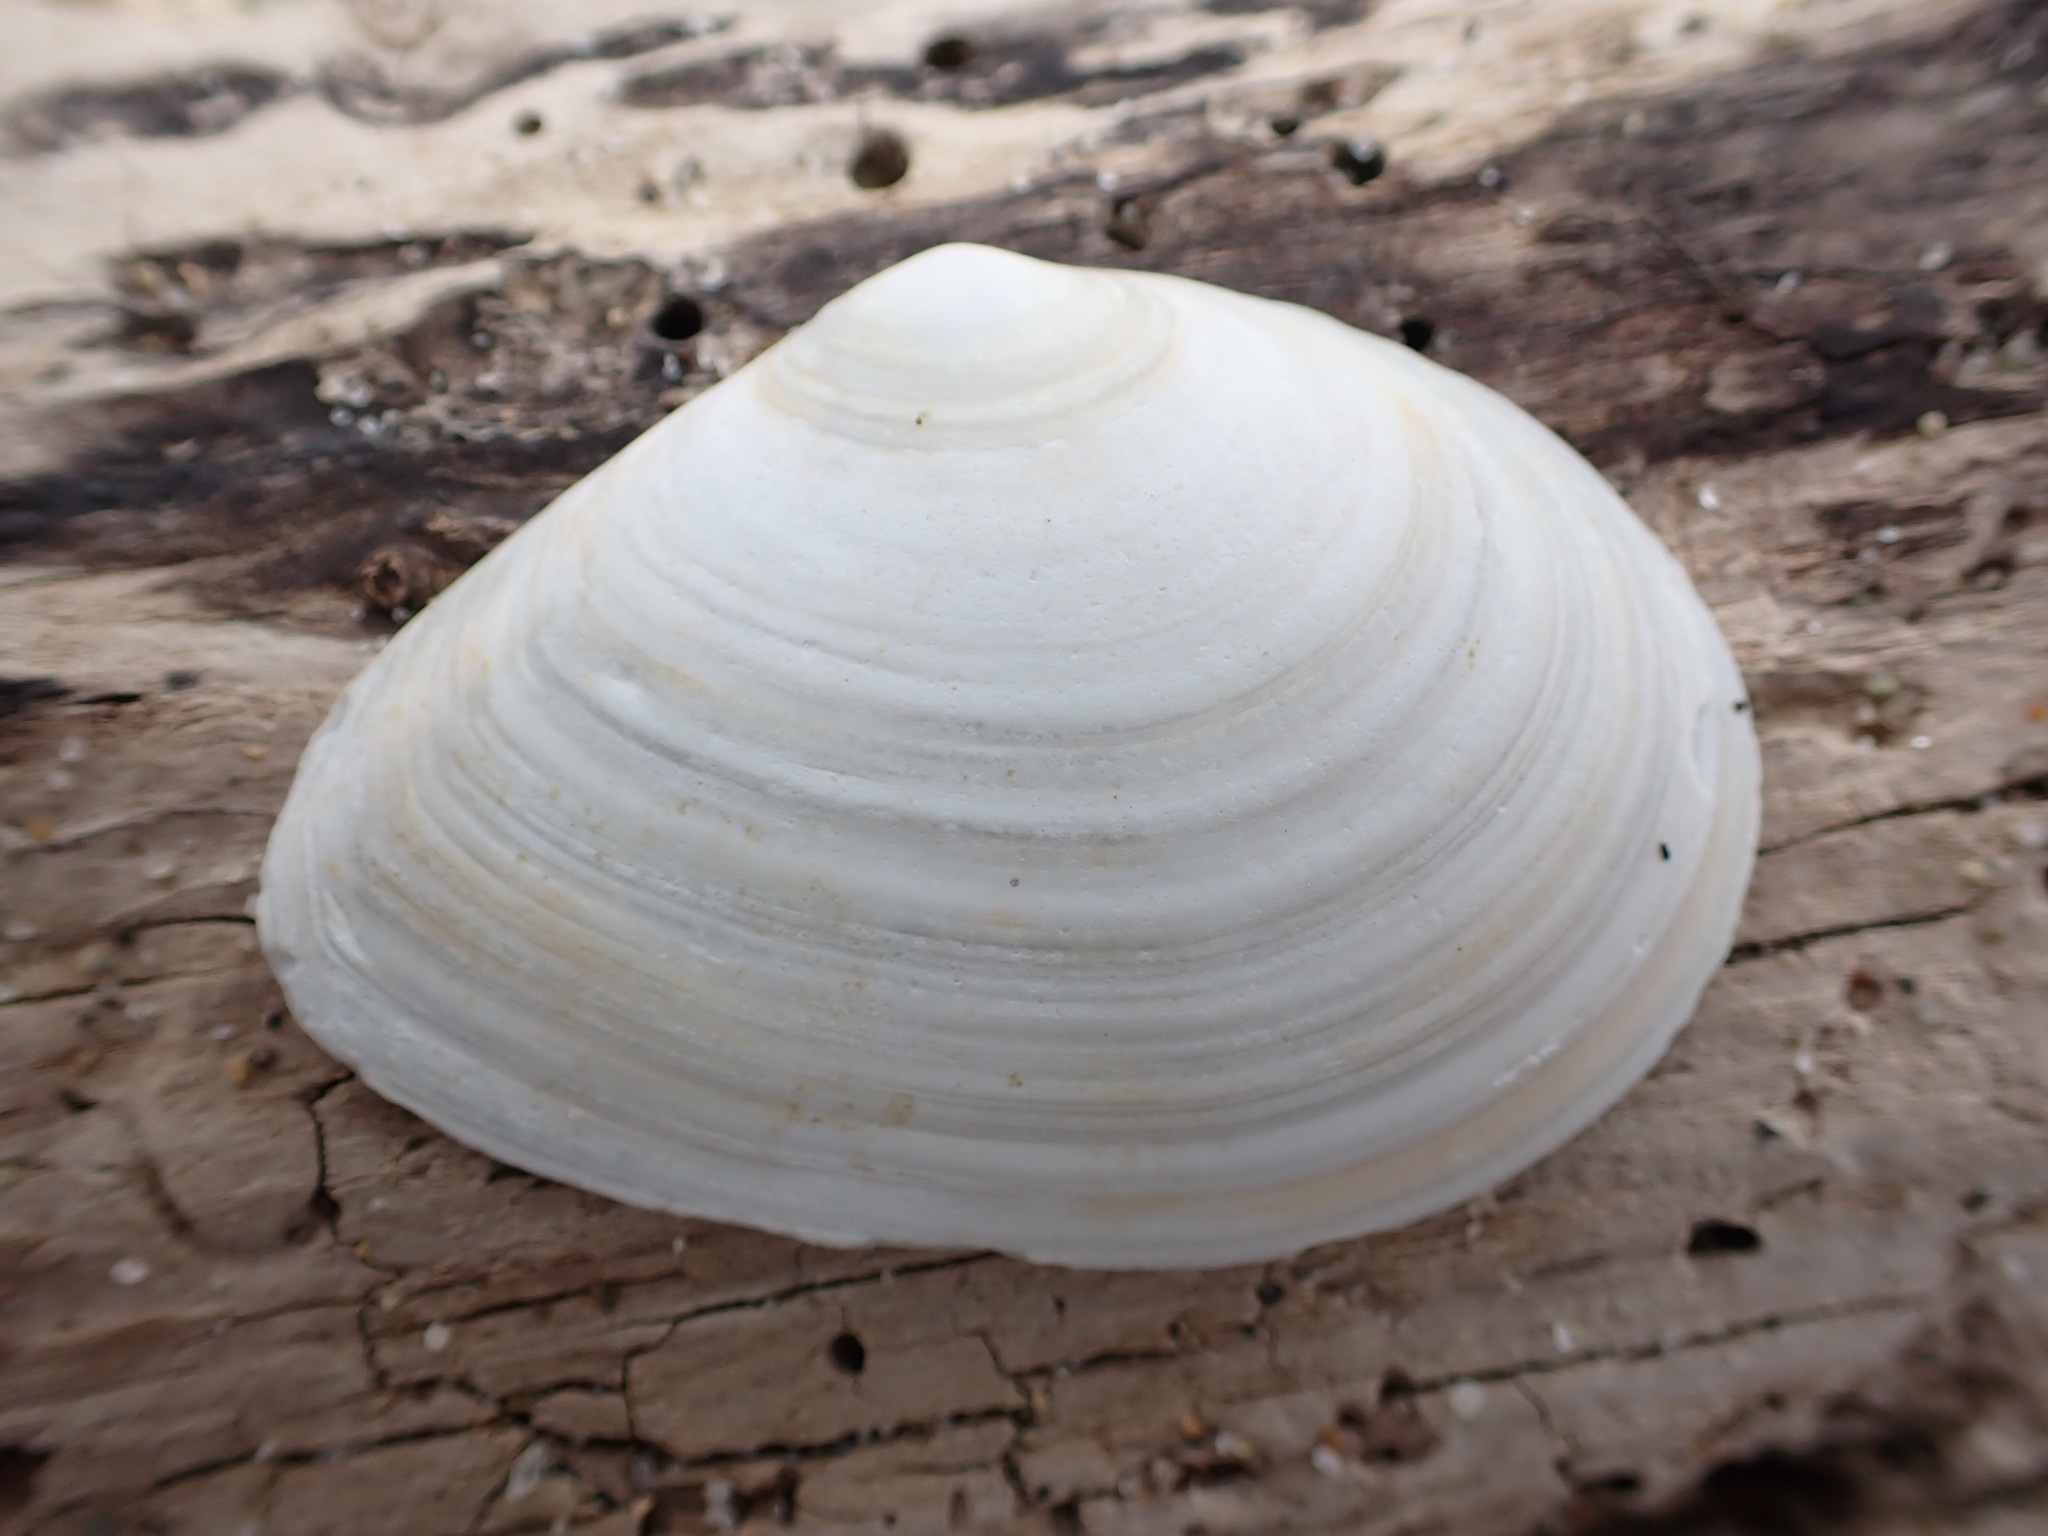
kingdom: Animalia
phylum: Mollusca
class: Bivalvia
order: Cardiida
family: Tellinidae
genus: Macoma
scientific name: Macoma nasuta
